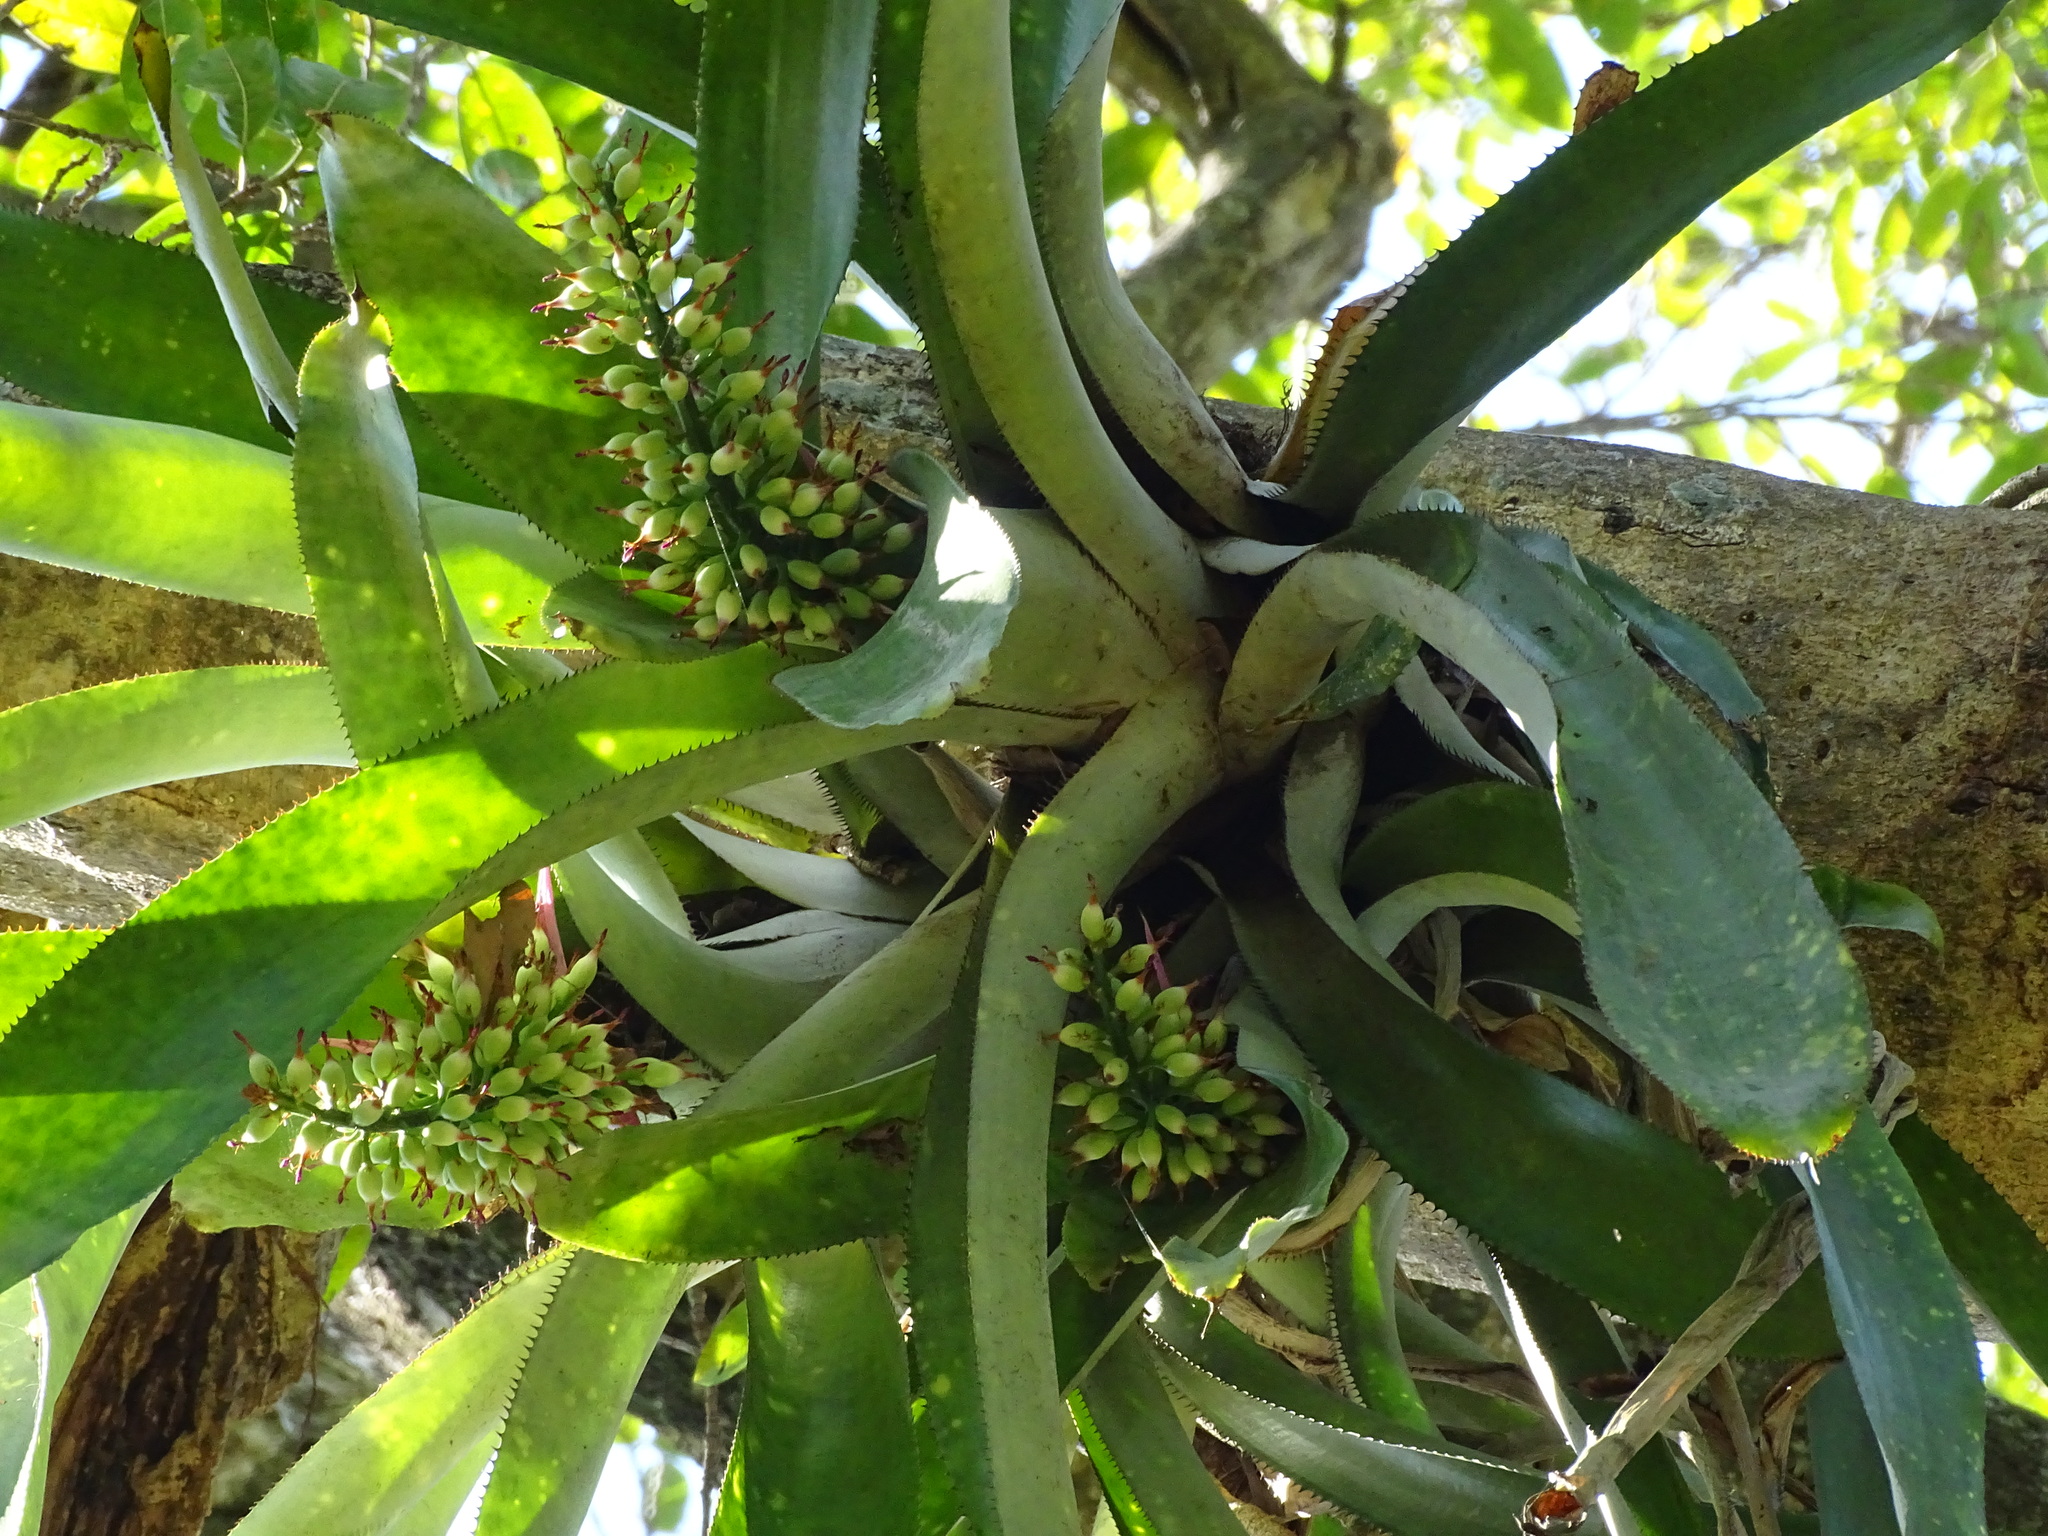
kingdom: Plantae
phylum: Tracheophyta
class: Liliopsida
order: Poales
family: Bromeliaceae
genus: Aechmea
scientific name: Aechmea matudae
